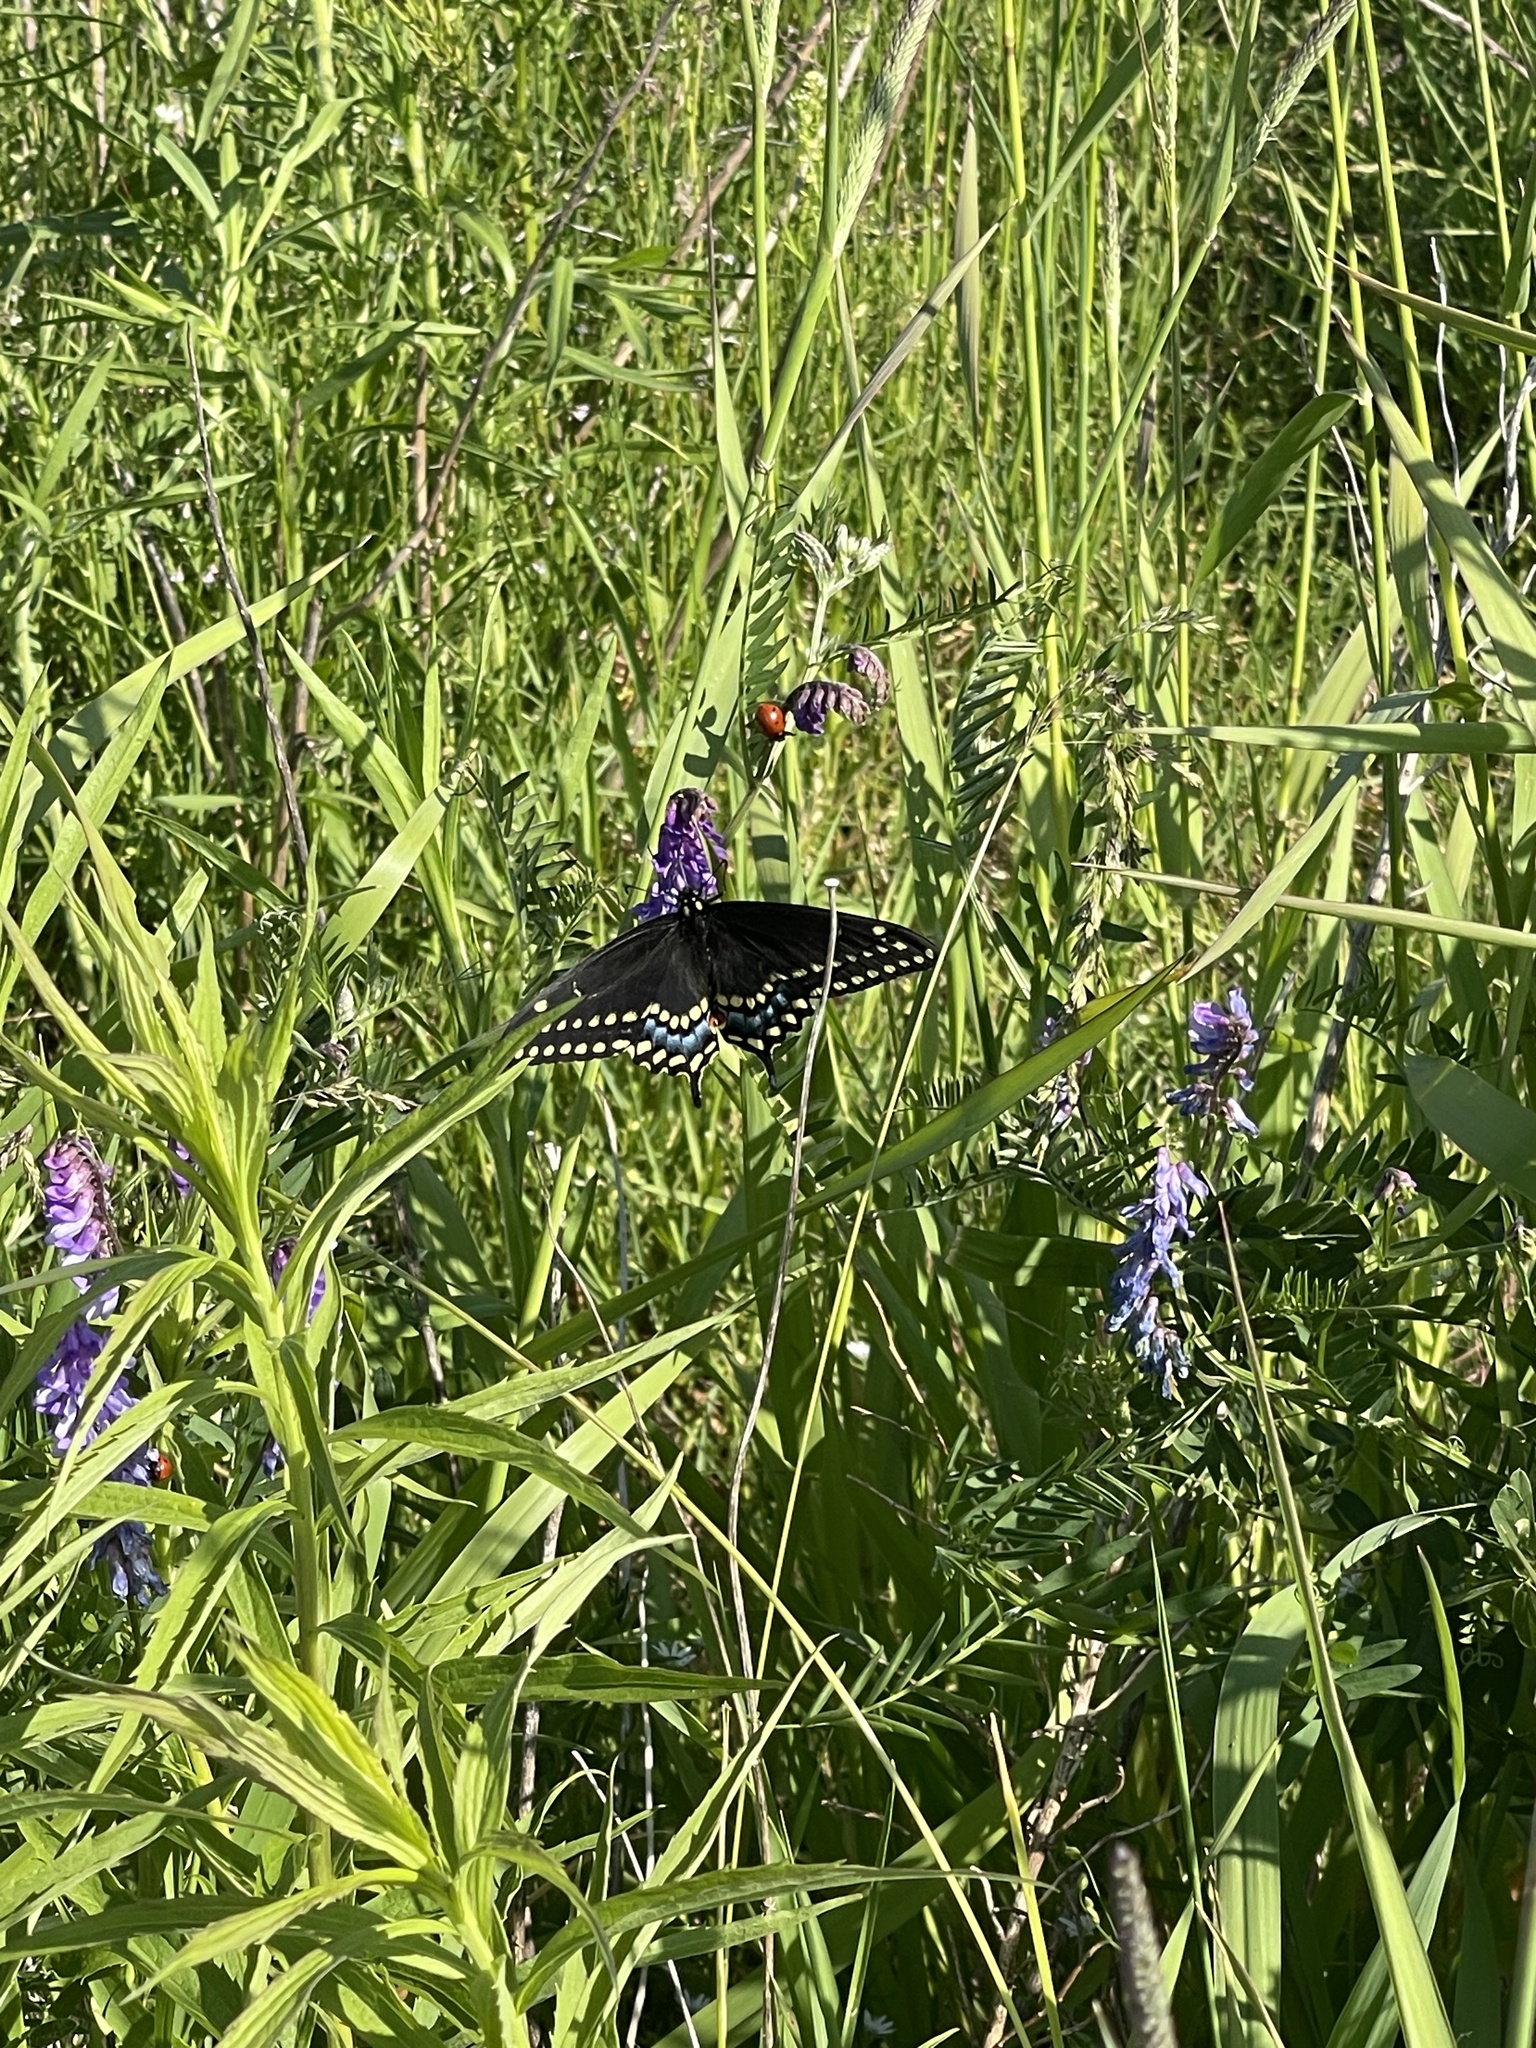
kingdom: Animalia
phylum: Arthropoda
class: Insecta
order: Lepidoptera
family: Papilionidae
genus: Papilio
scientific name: Papilio polyxenes
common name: Black swallowtail
